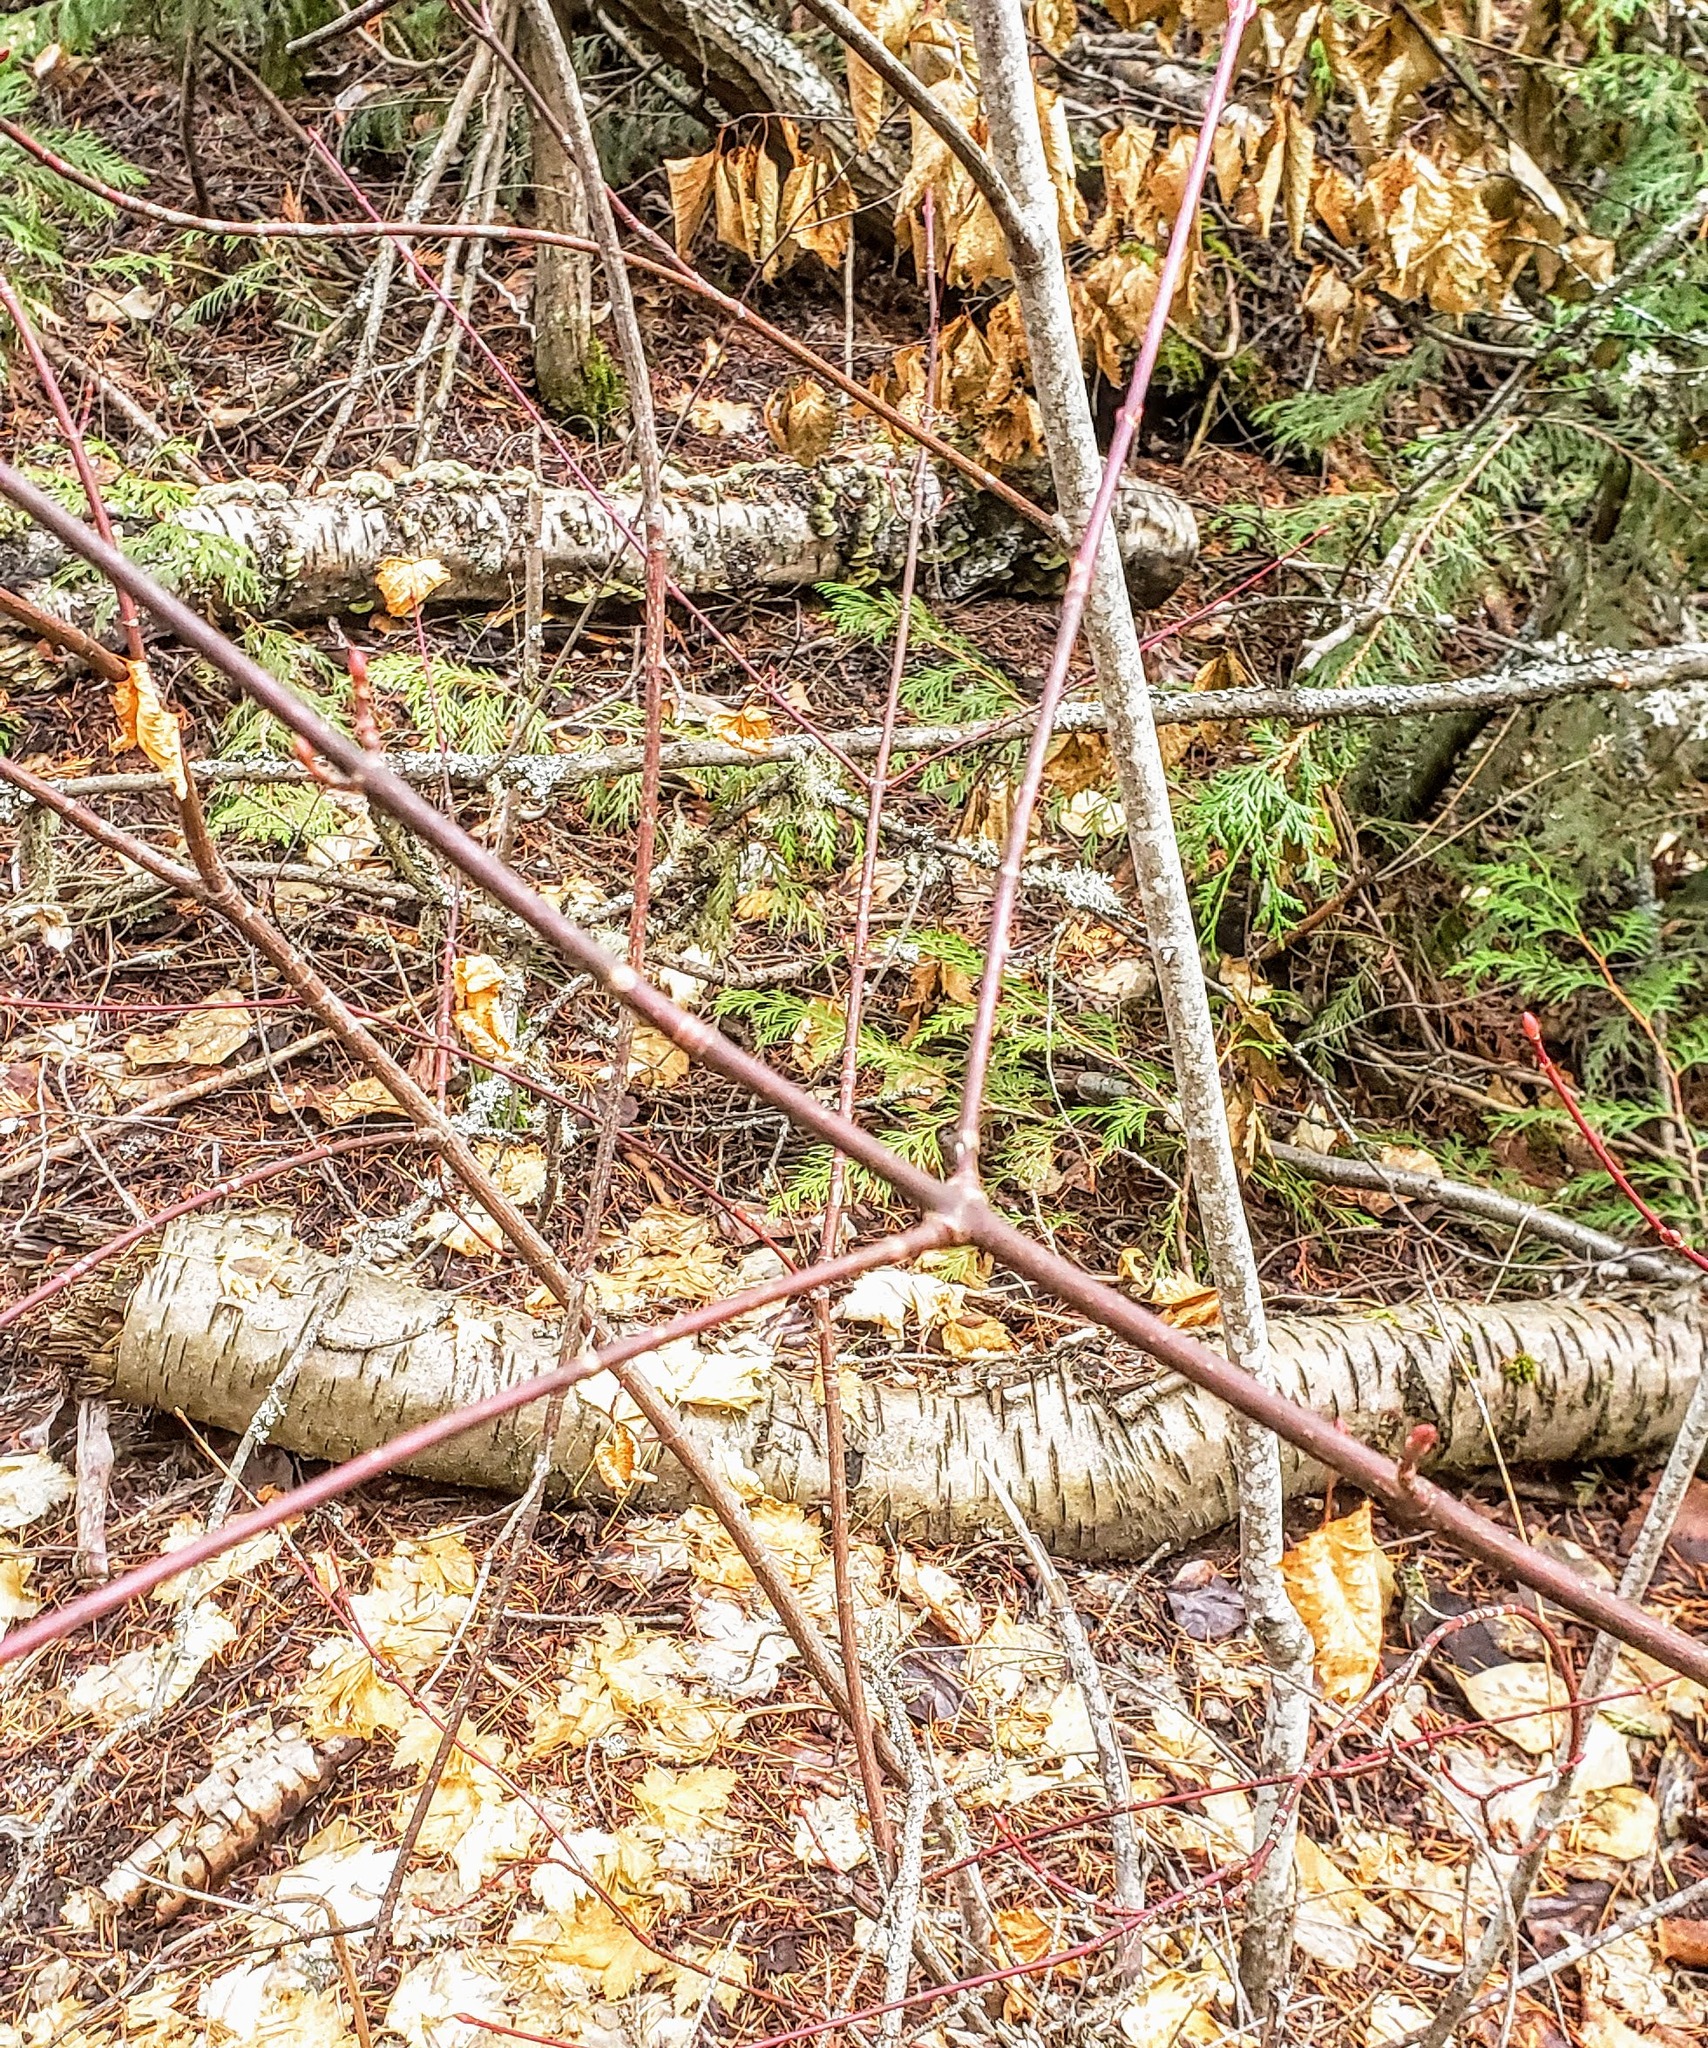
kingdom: Plantae
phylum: Tracheophyta
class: Magnoliopsida
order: Sapindales
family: Sapindaceae
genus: Acer
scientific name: Acer glabrum
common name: Rocky mountain maple
